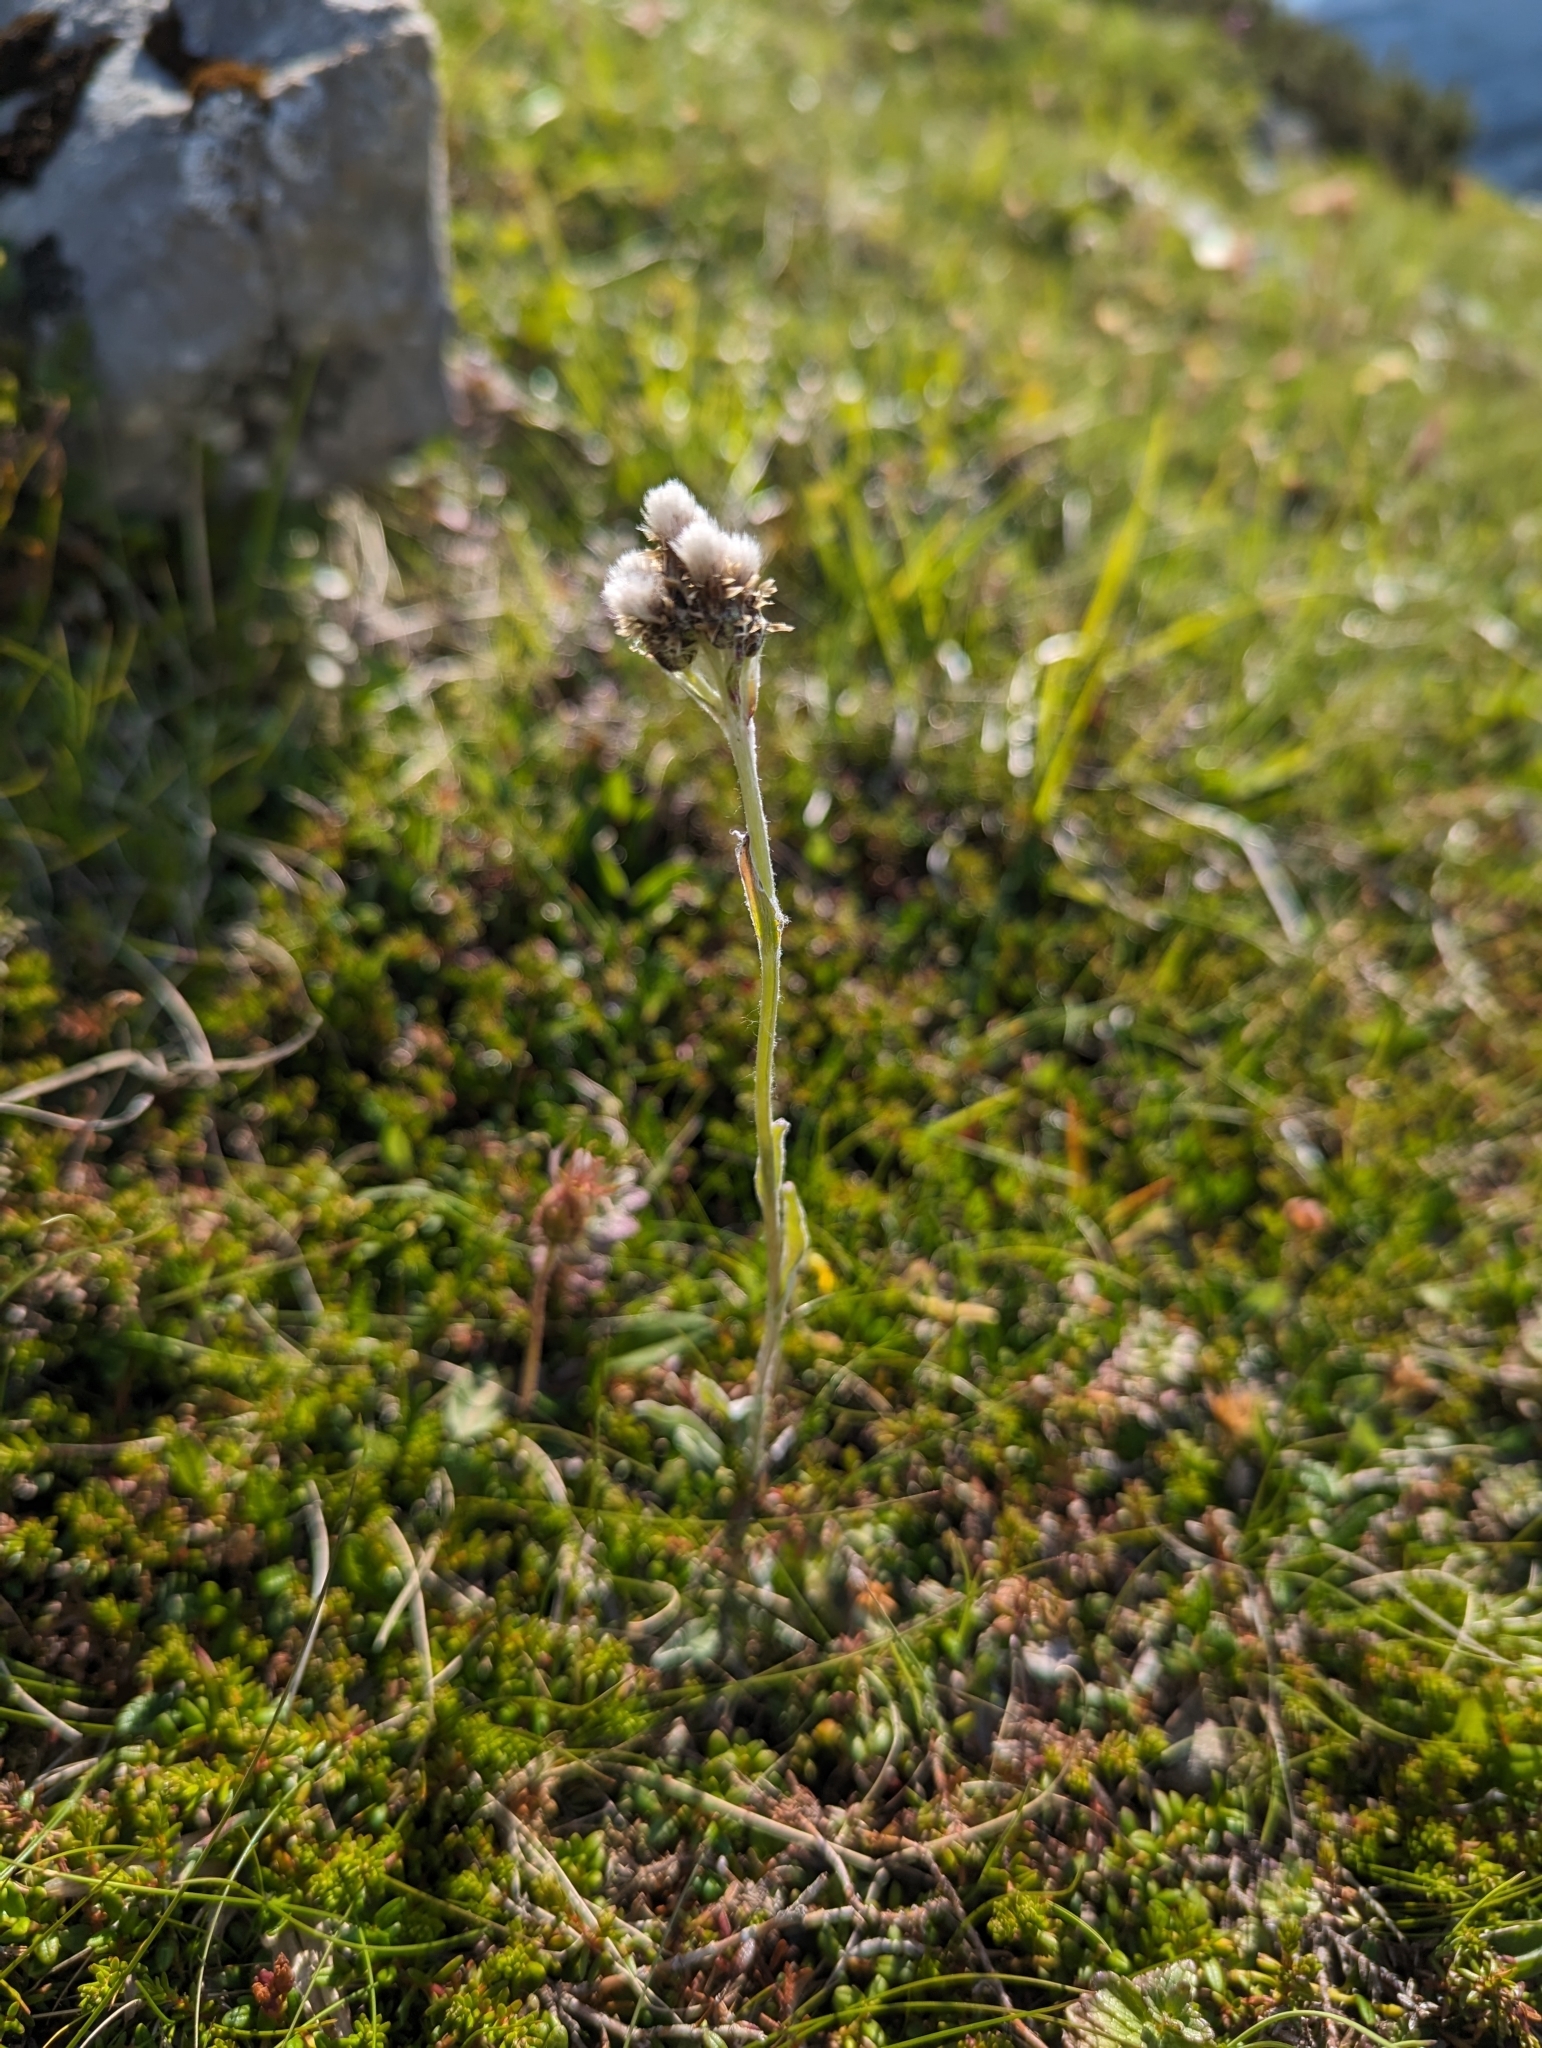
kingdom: Plantae
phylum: Tracheophyta
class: Magnoliopsida
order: Asterales
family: Asteraceae
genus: Antennaria
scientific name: Antennaria dioica
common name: Mountain everlasting
